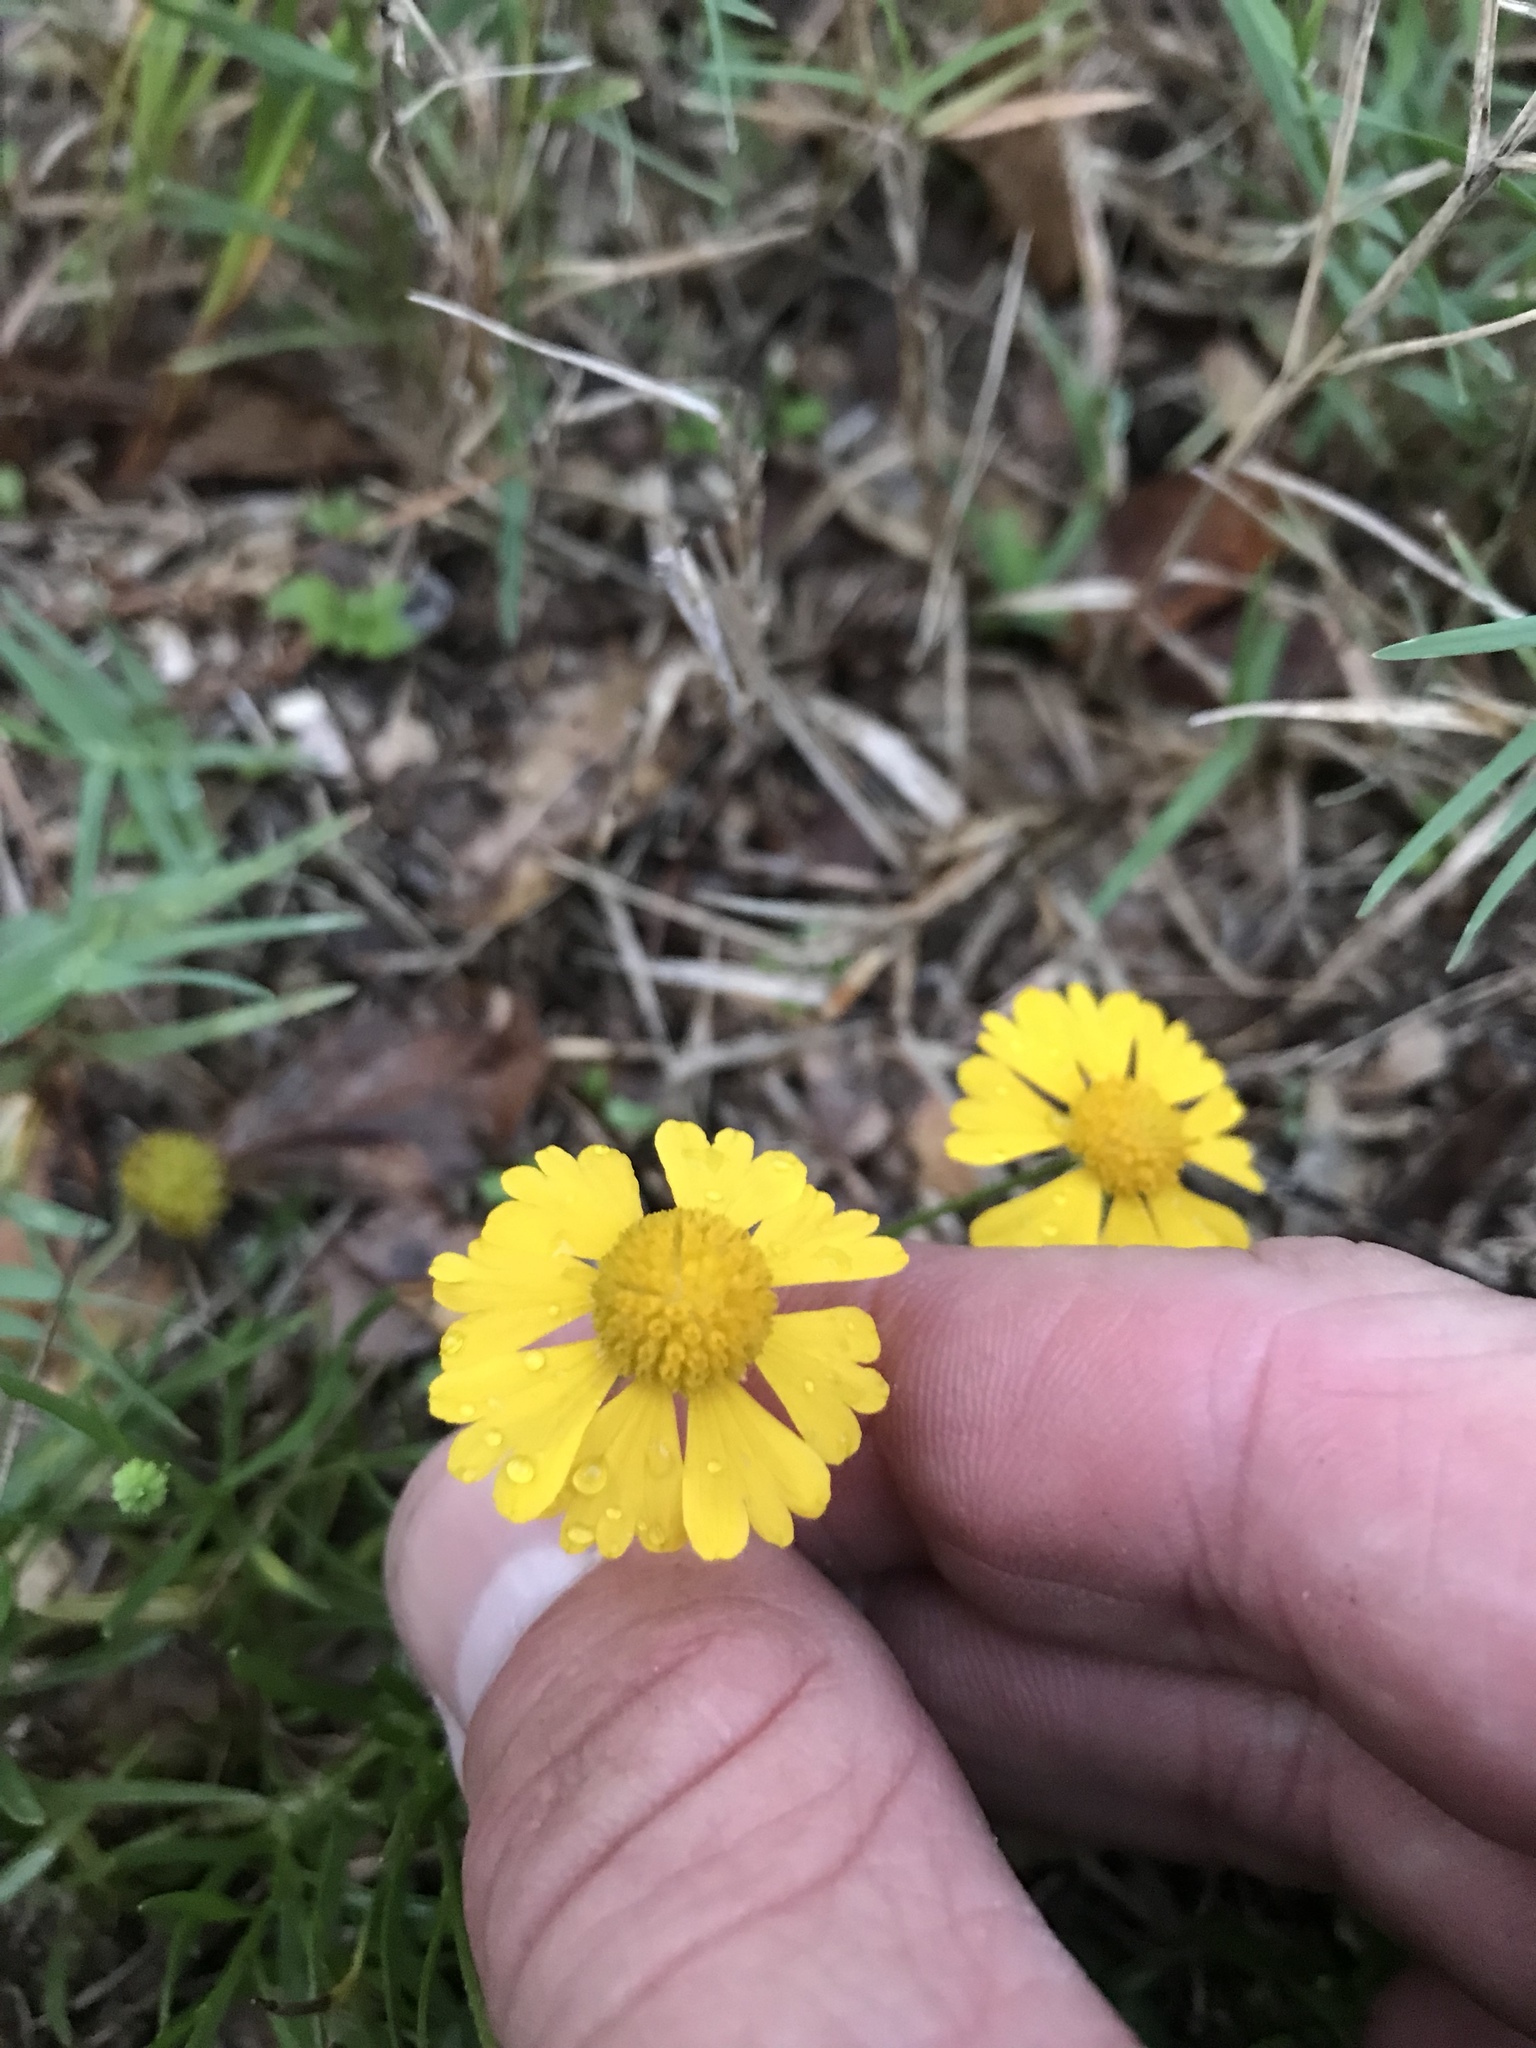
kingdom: Plantae
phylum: Tracheophyta
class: Magnoliopsida
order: Asterales
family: Asteraceae
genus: Helenium
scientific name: Helenium amarum
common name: Bitter sneezeweed
